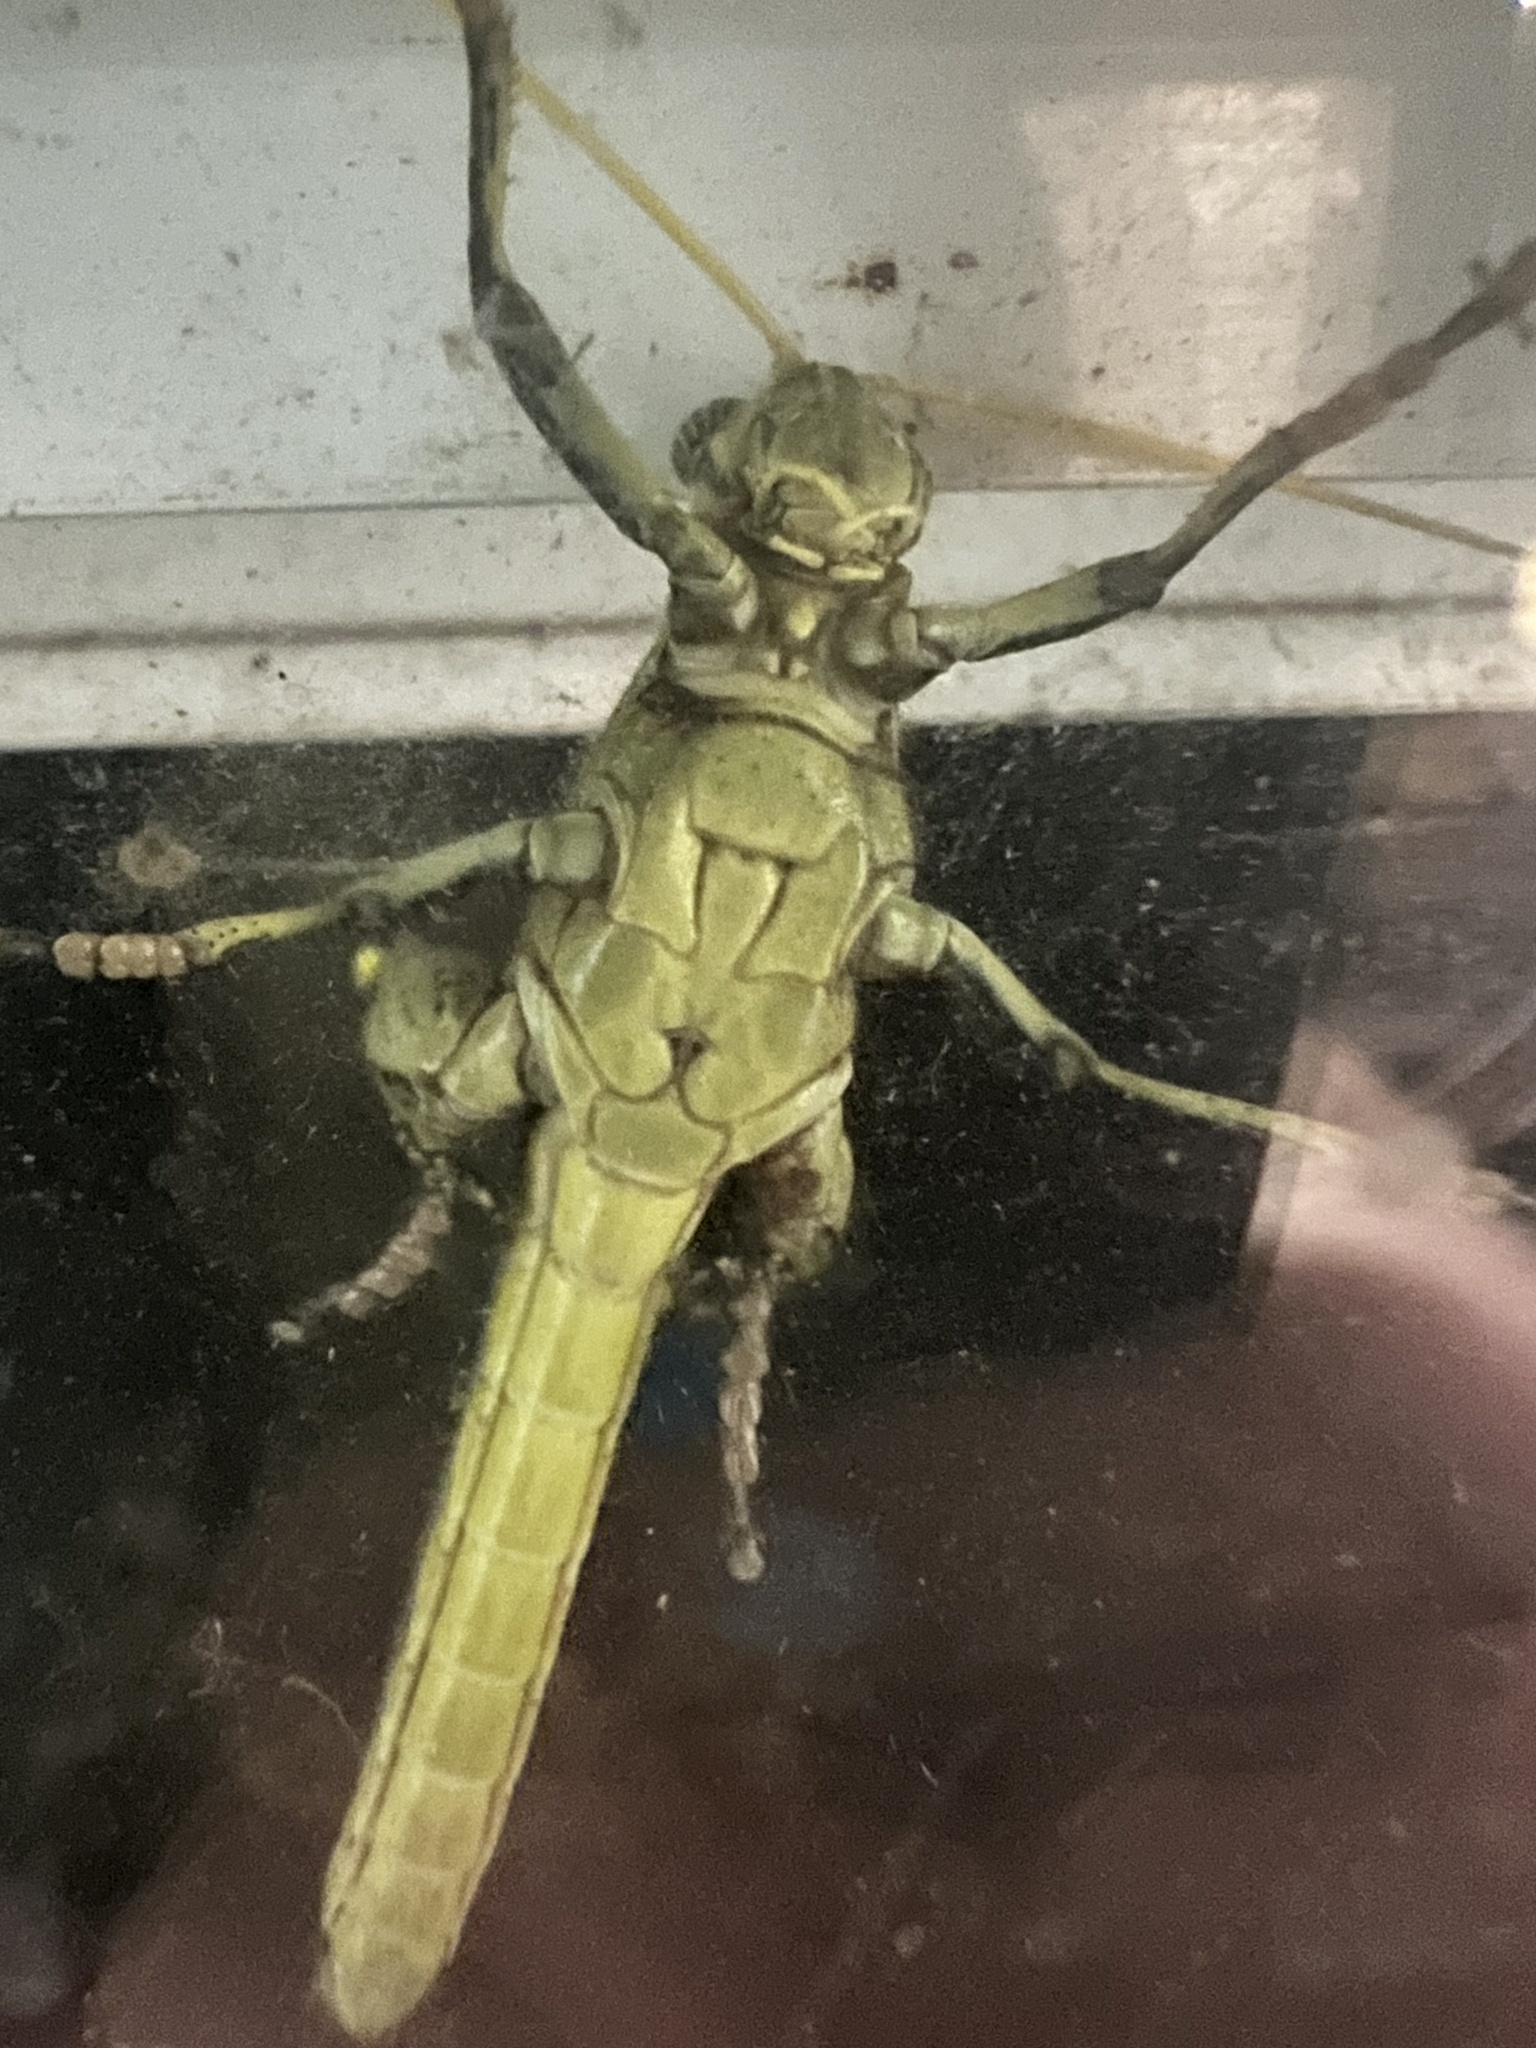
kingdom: Animalia
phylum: Arthropoda
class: Insecta
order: Orthoptera
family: Acrididae
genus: Schistocerca
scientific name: Schistocerca obscura
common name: Obscure bird grasshopper
